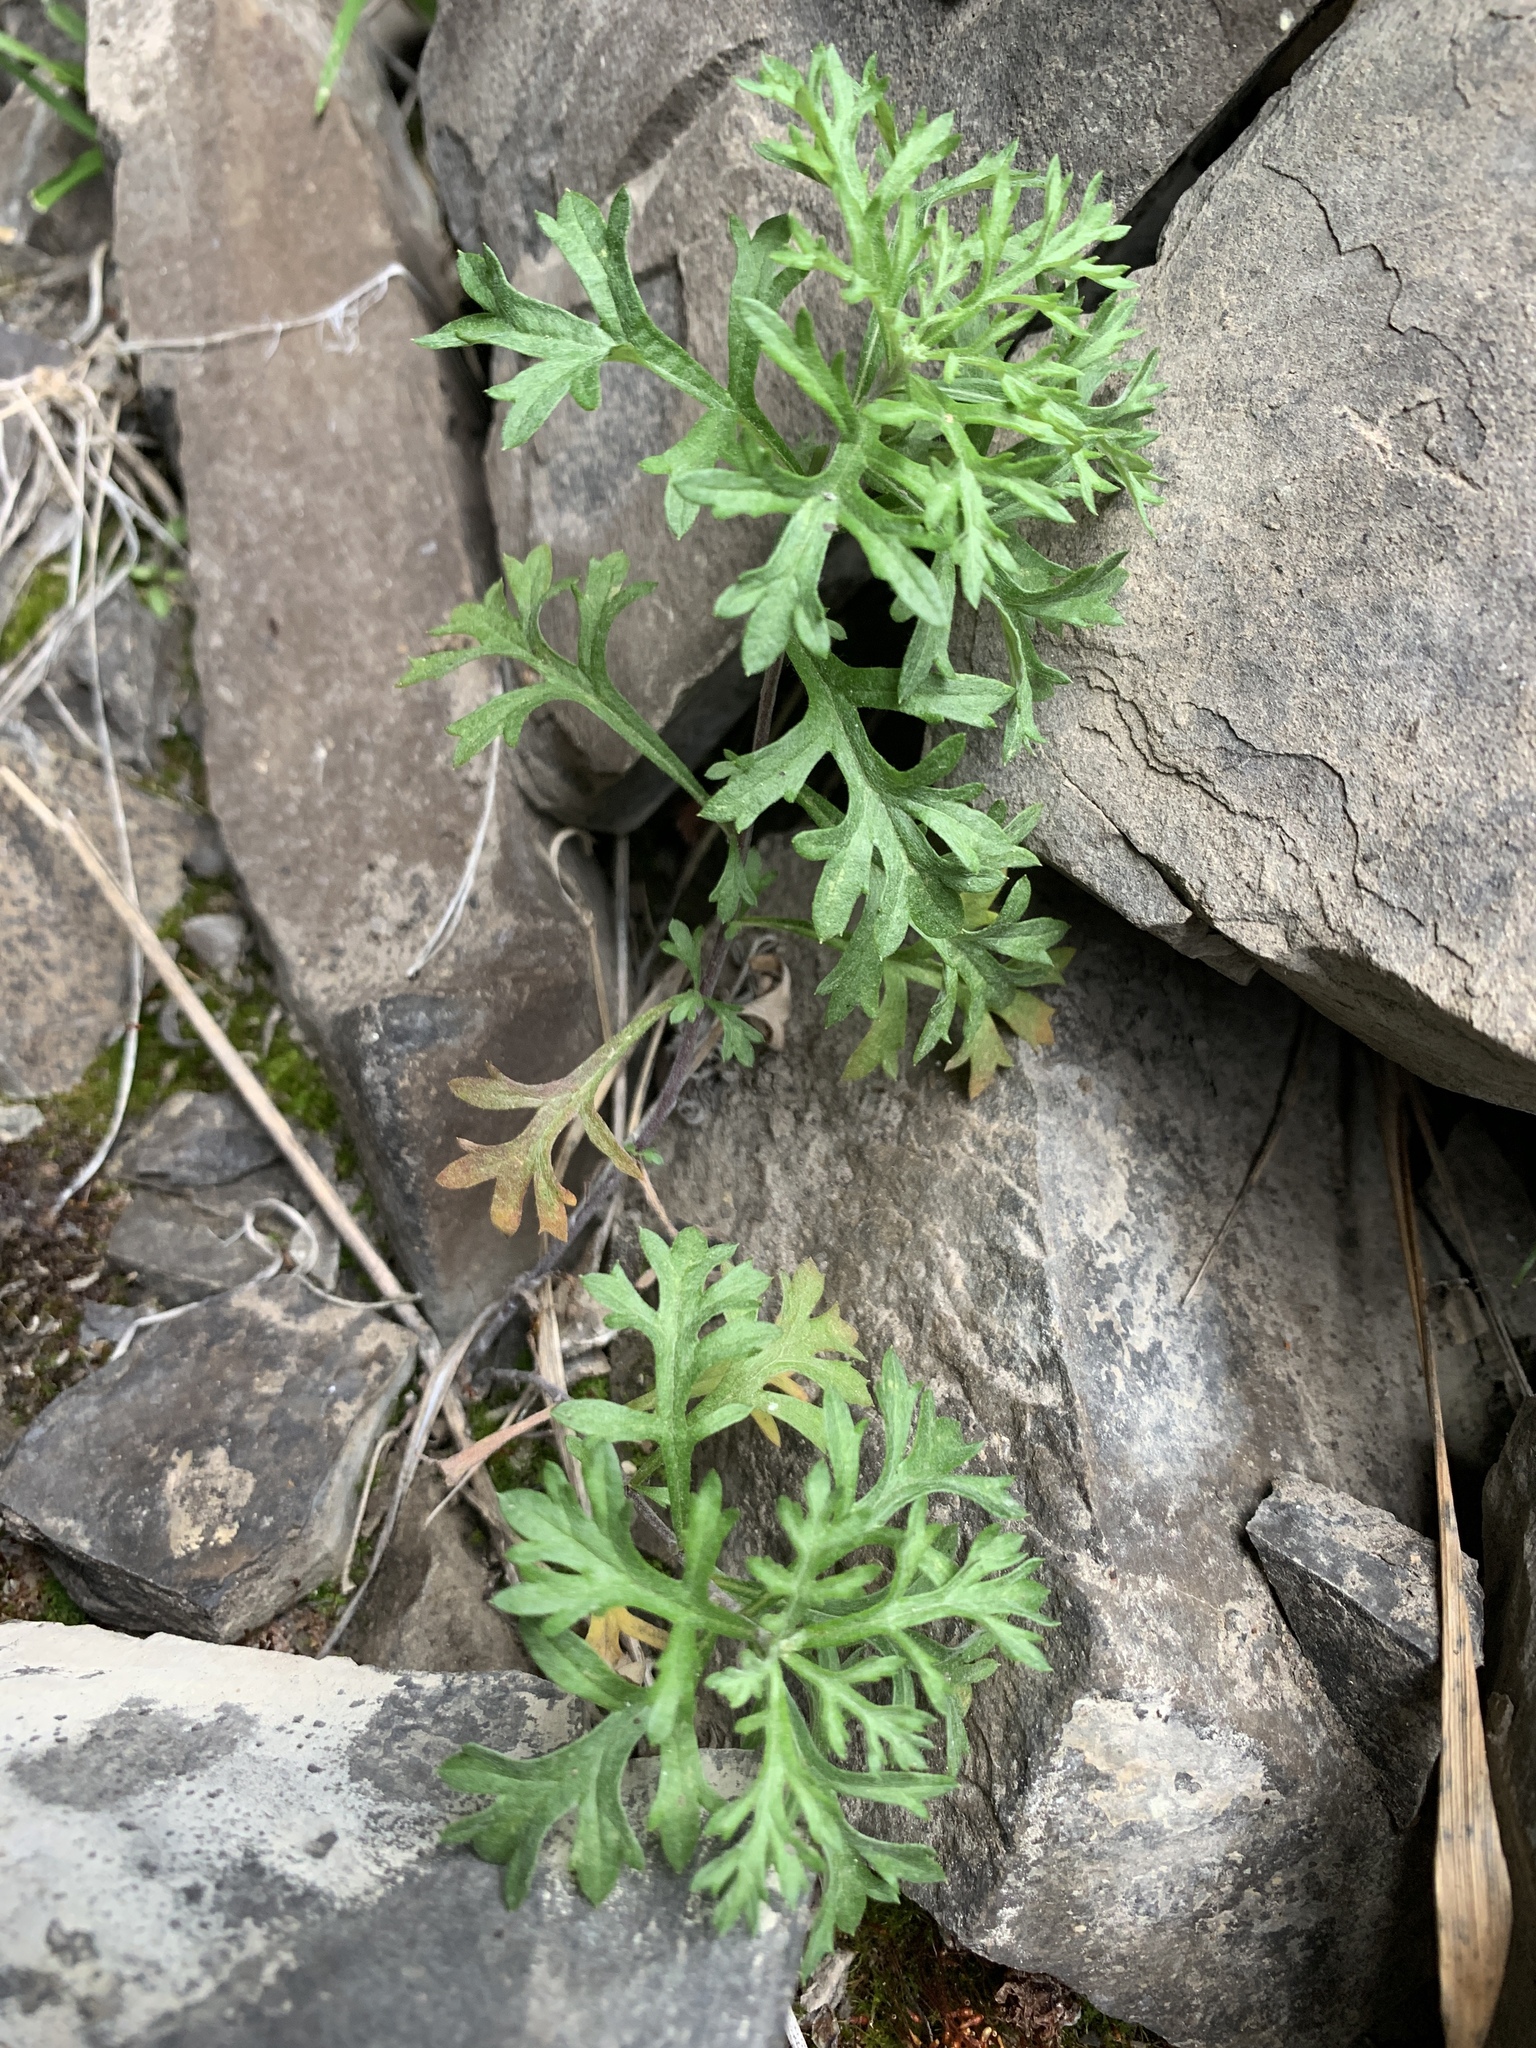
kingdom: Plantae
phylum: Tracheophyta
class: Magnoliopsida
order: Asterales
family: Asteraceae
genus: Artemisia
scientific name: Artemisia michauxiana
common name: Lemon sagewort
